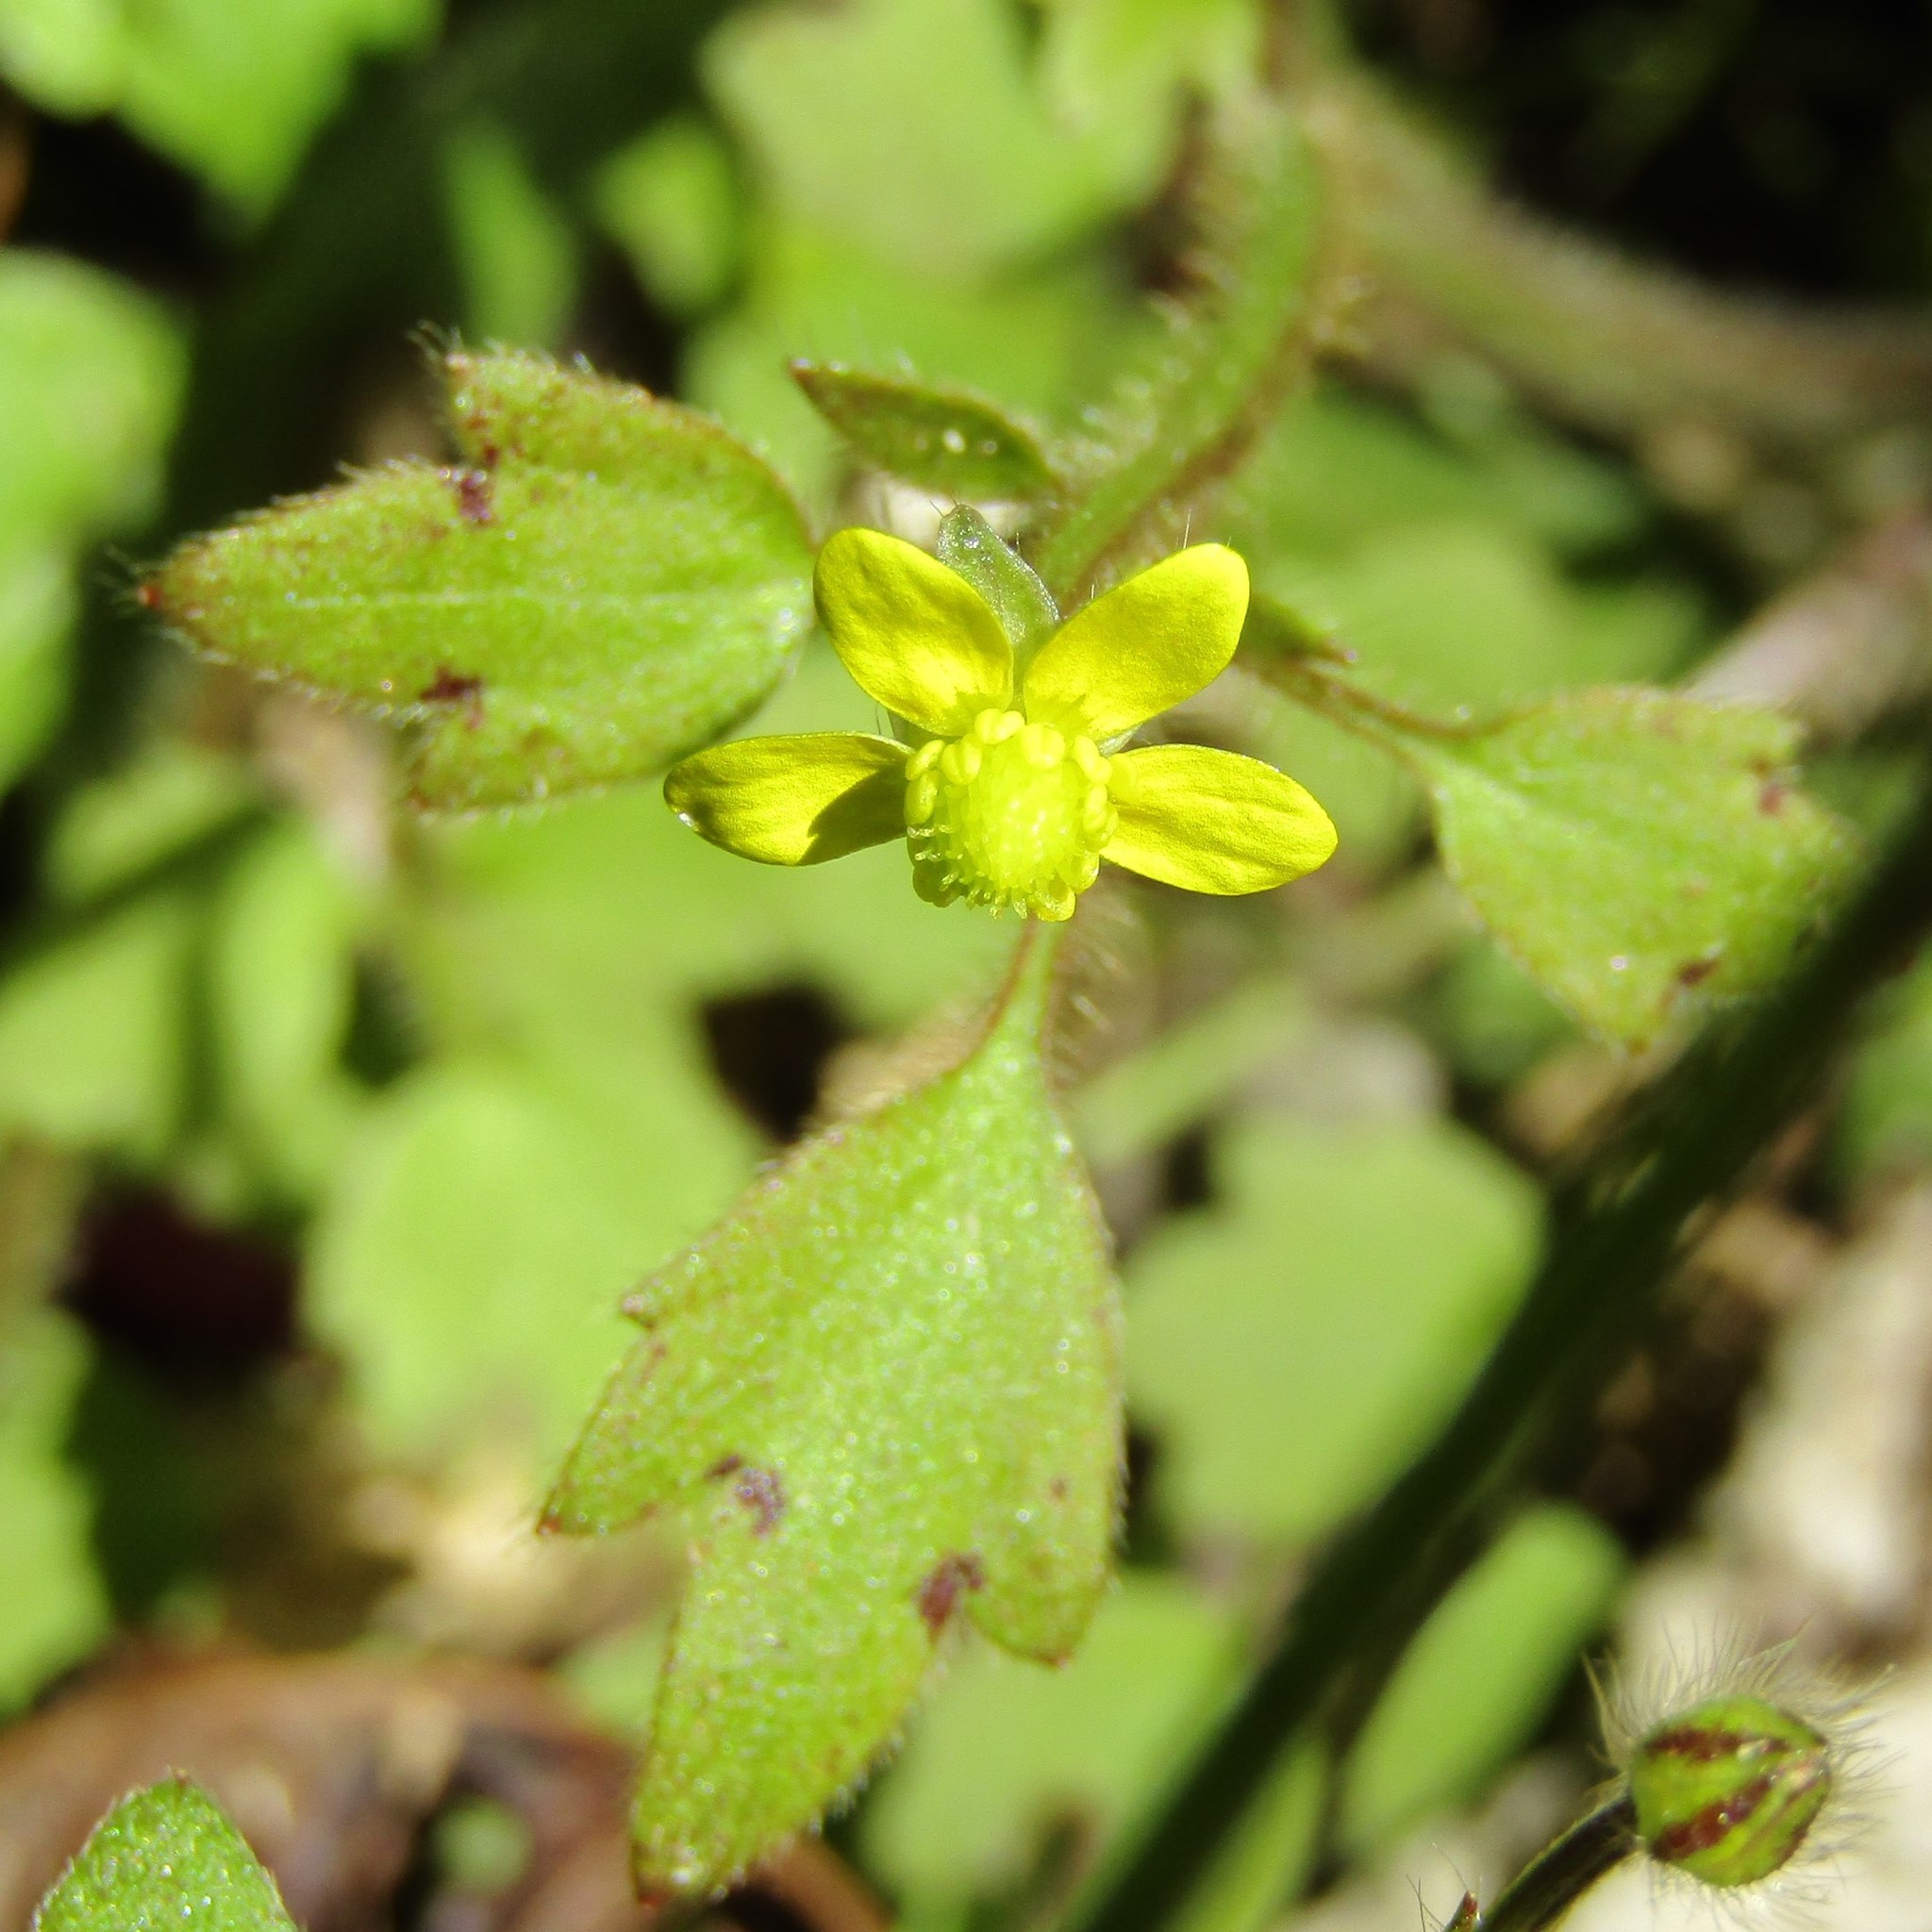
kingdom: Plantae
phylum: Tracheophyta
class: Magnoliopsida
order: Ranunculales
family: Ranunculaceae
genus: Ranunculus
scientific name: Ranunculus reflexus
